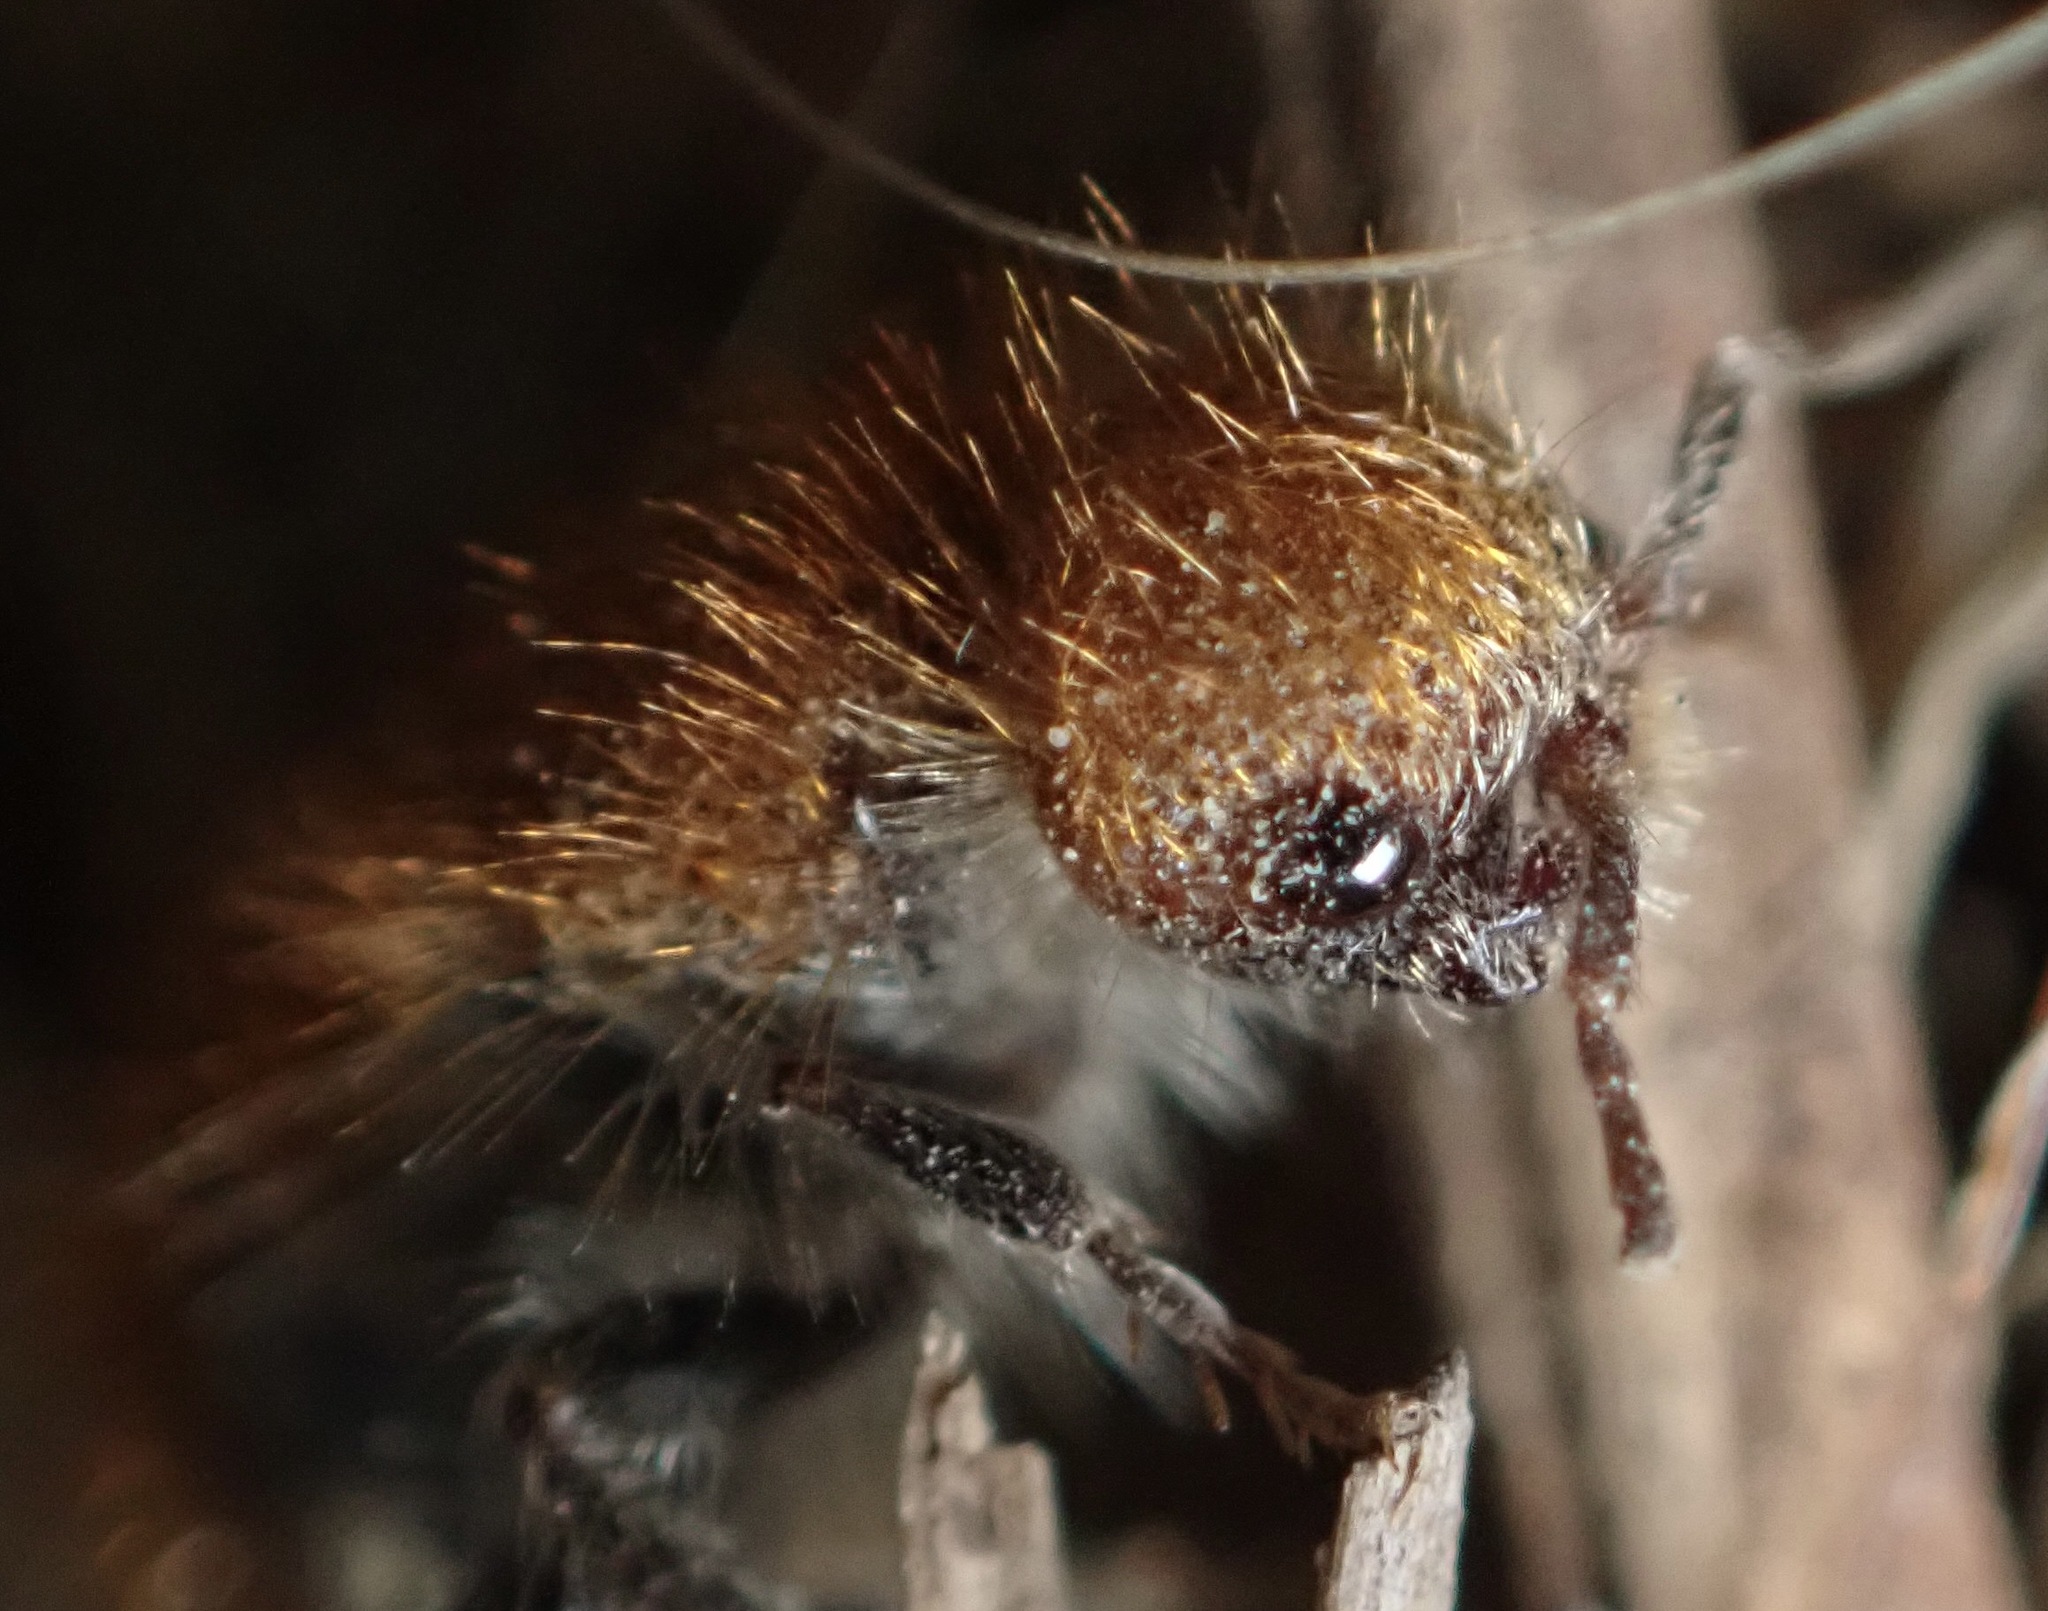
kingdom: Animalia
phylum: Arthropoda
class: Insecta
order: Hymenoptera
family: Mutillidae
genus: Sphaeropthalma
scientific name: Sphaeropthalma unicolor
